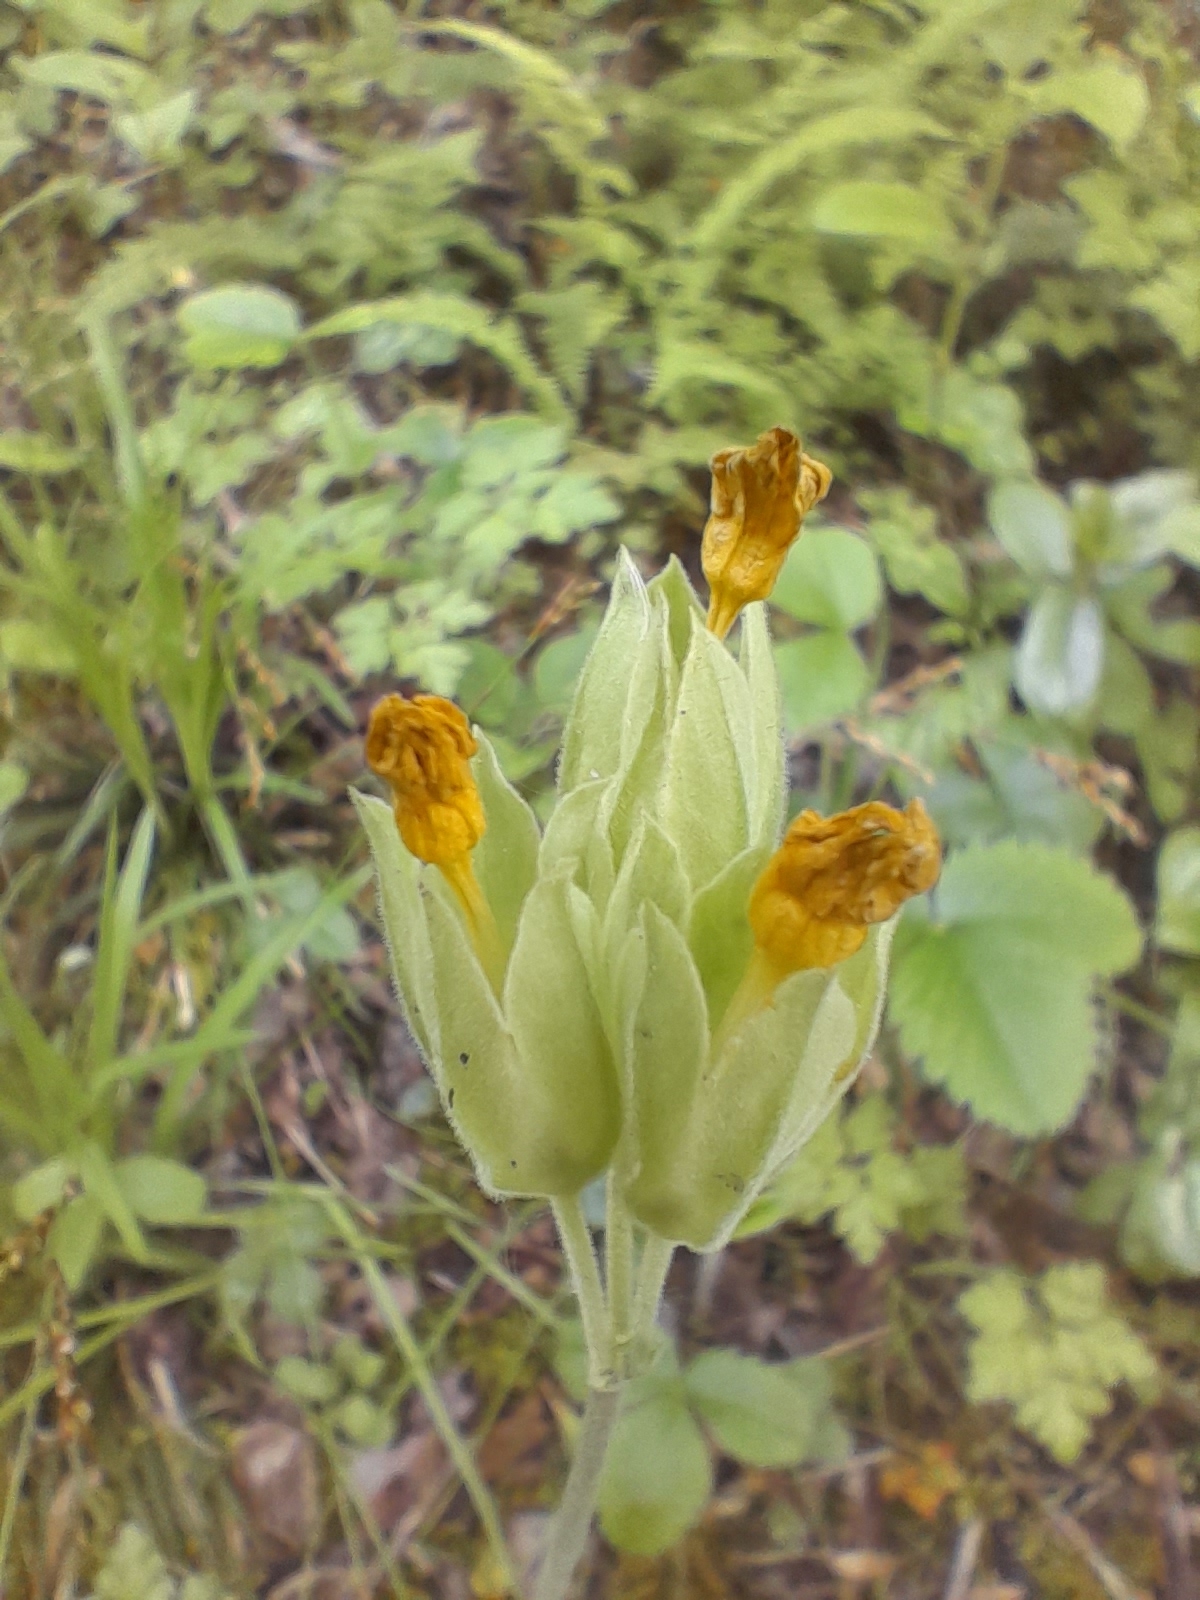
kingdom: Plantae
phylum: Tracheophyta
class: Magnoliopsida
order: Ericales
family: Primulaceae
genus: Primula
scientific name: Primula veris
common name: Cowslip
